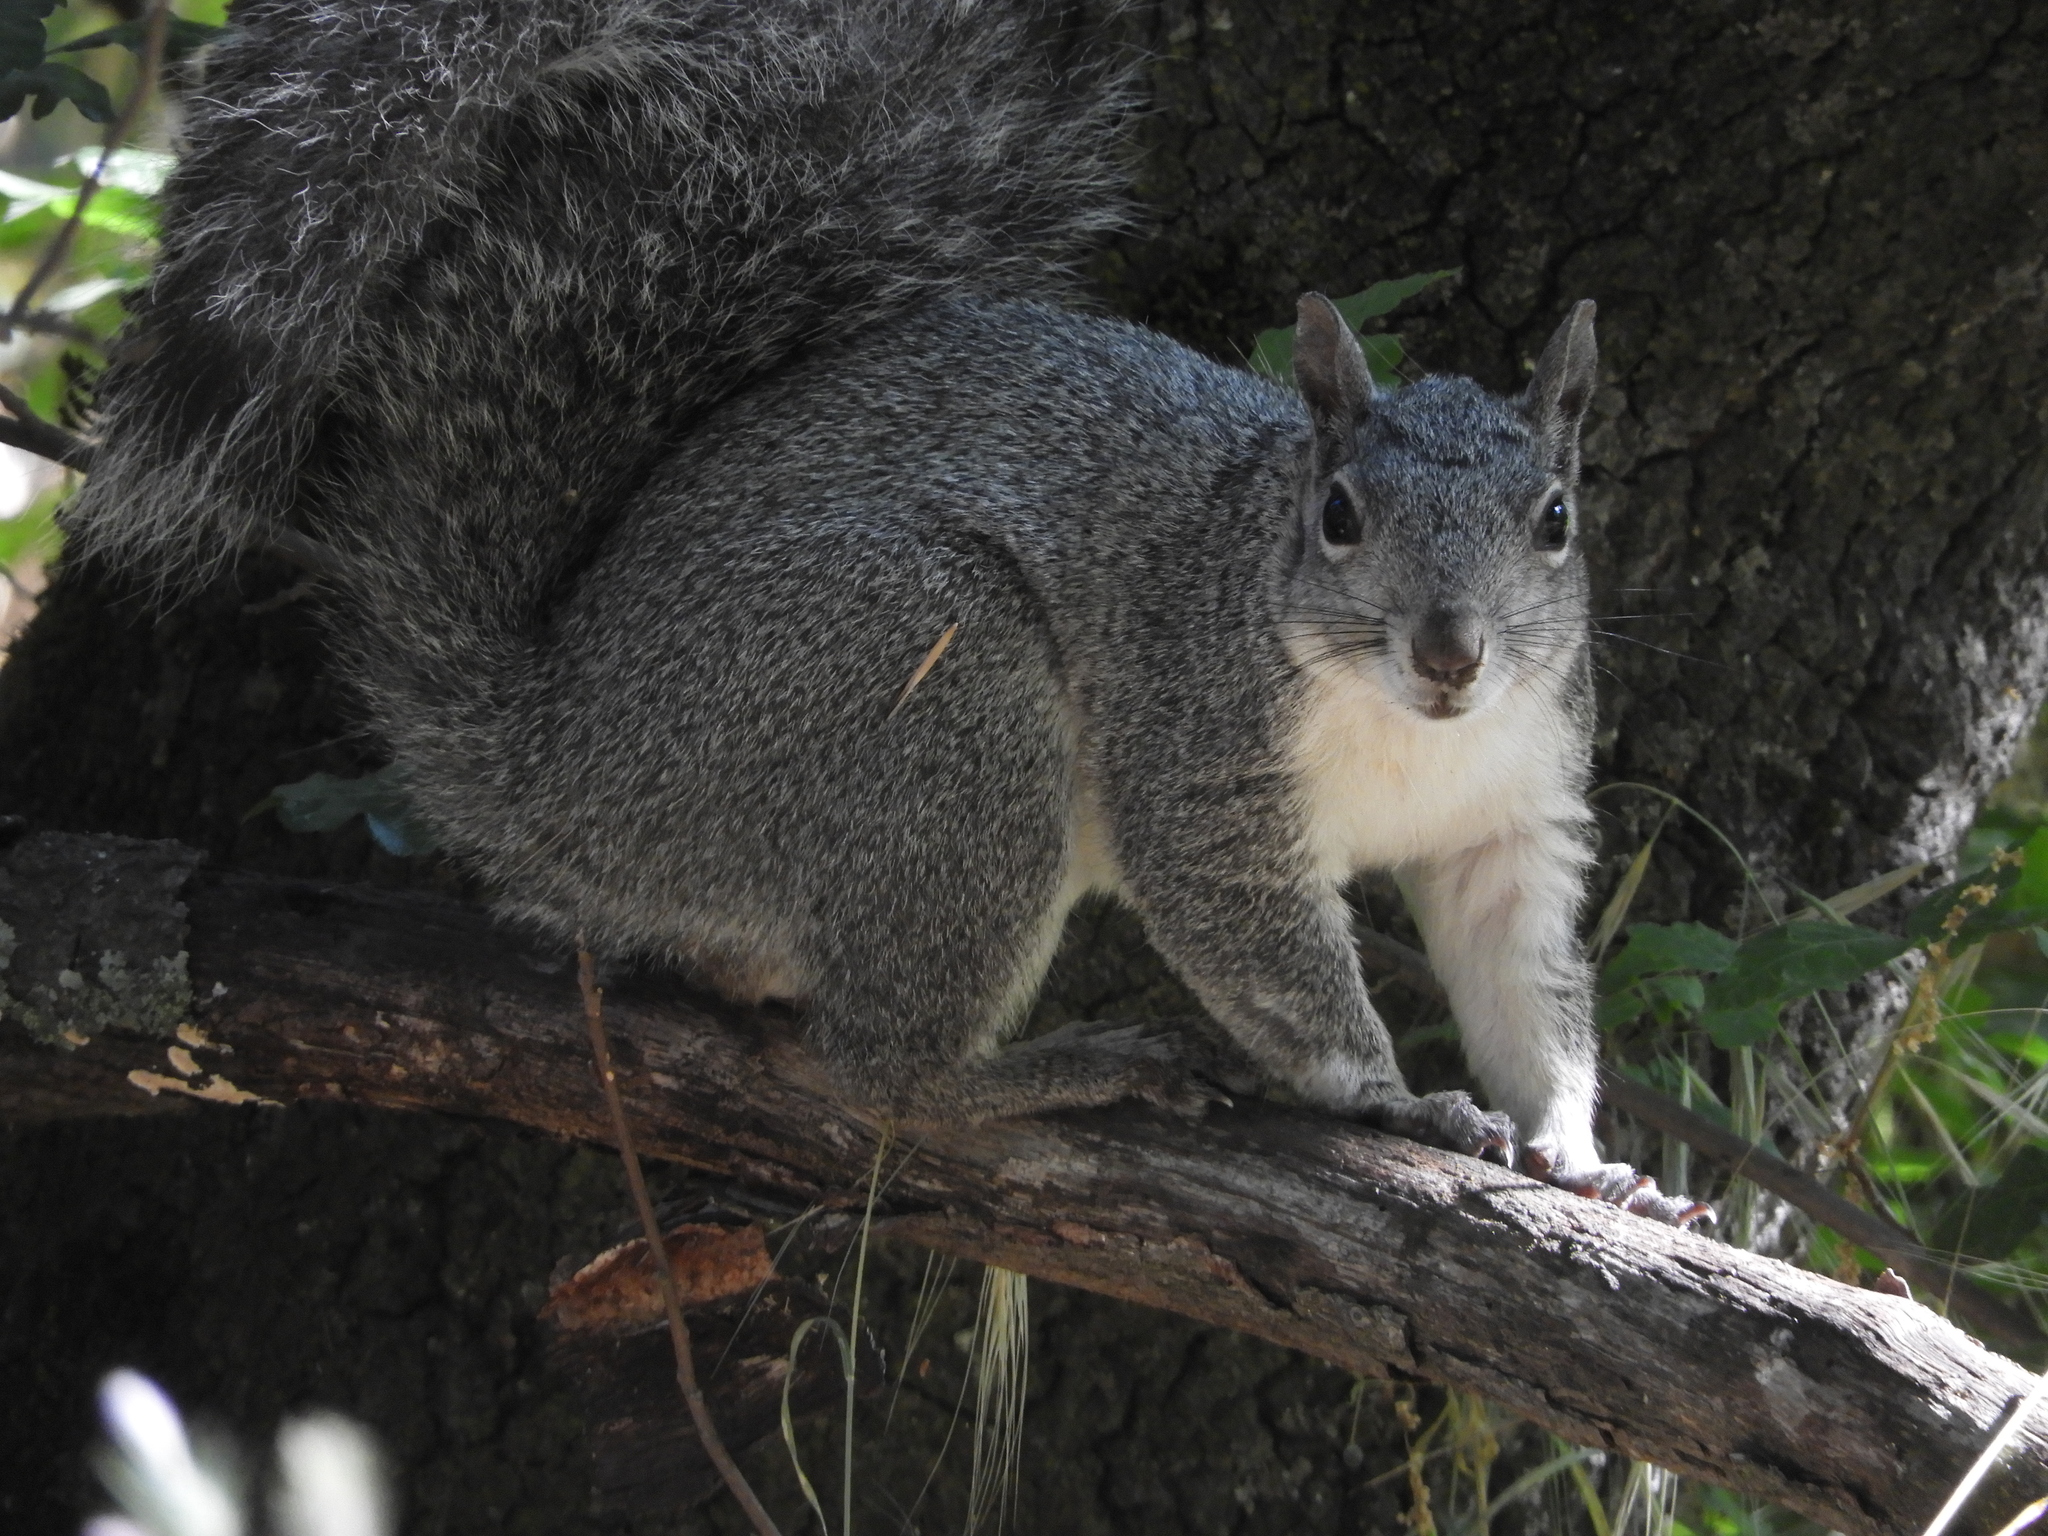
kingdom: Animalia
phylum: Chordata
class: Mammalia
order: Rodentia
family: Sciuridae
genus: Sciurus
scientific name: Sciurus griseus
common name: Western gray squirrel
